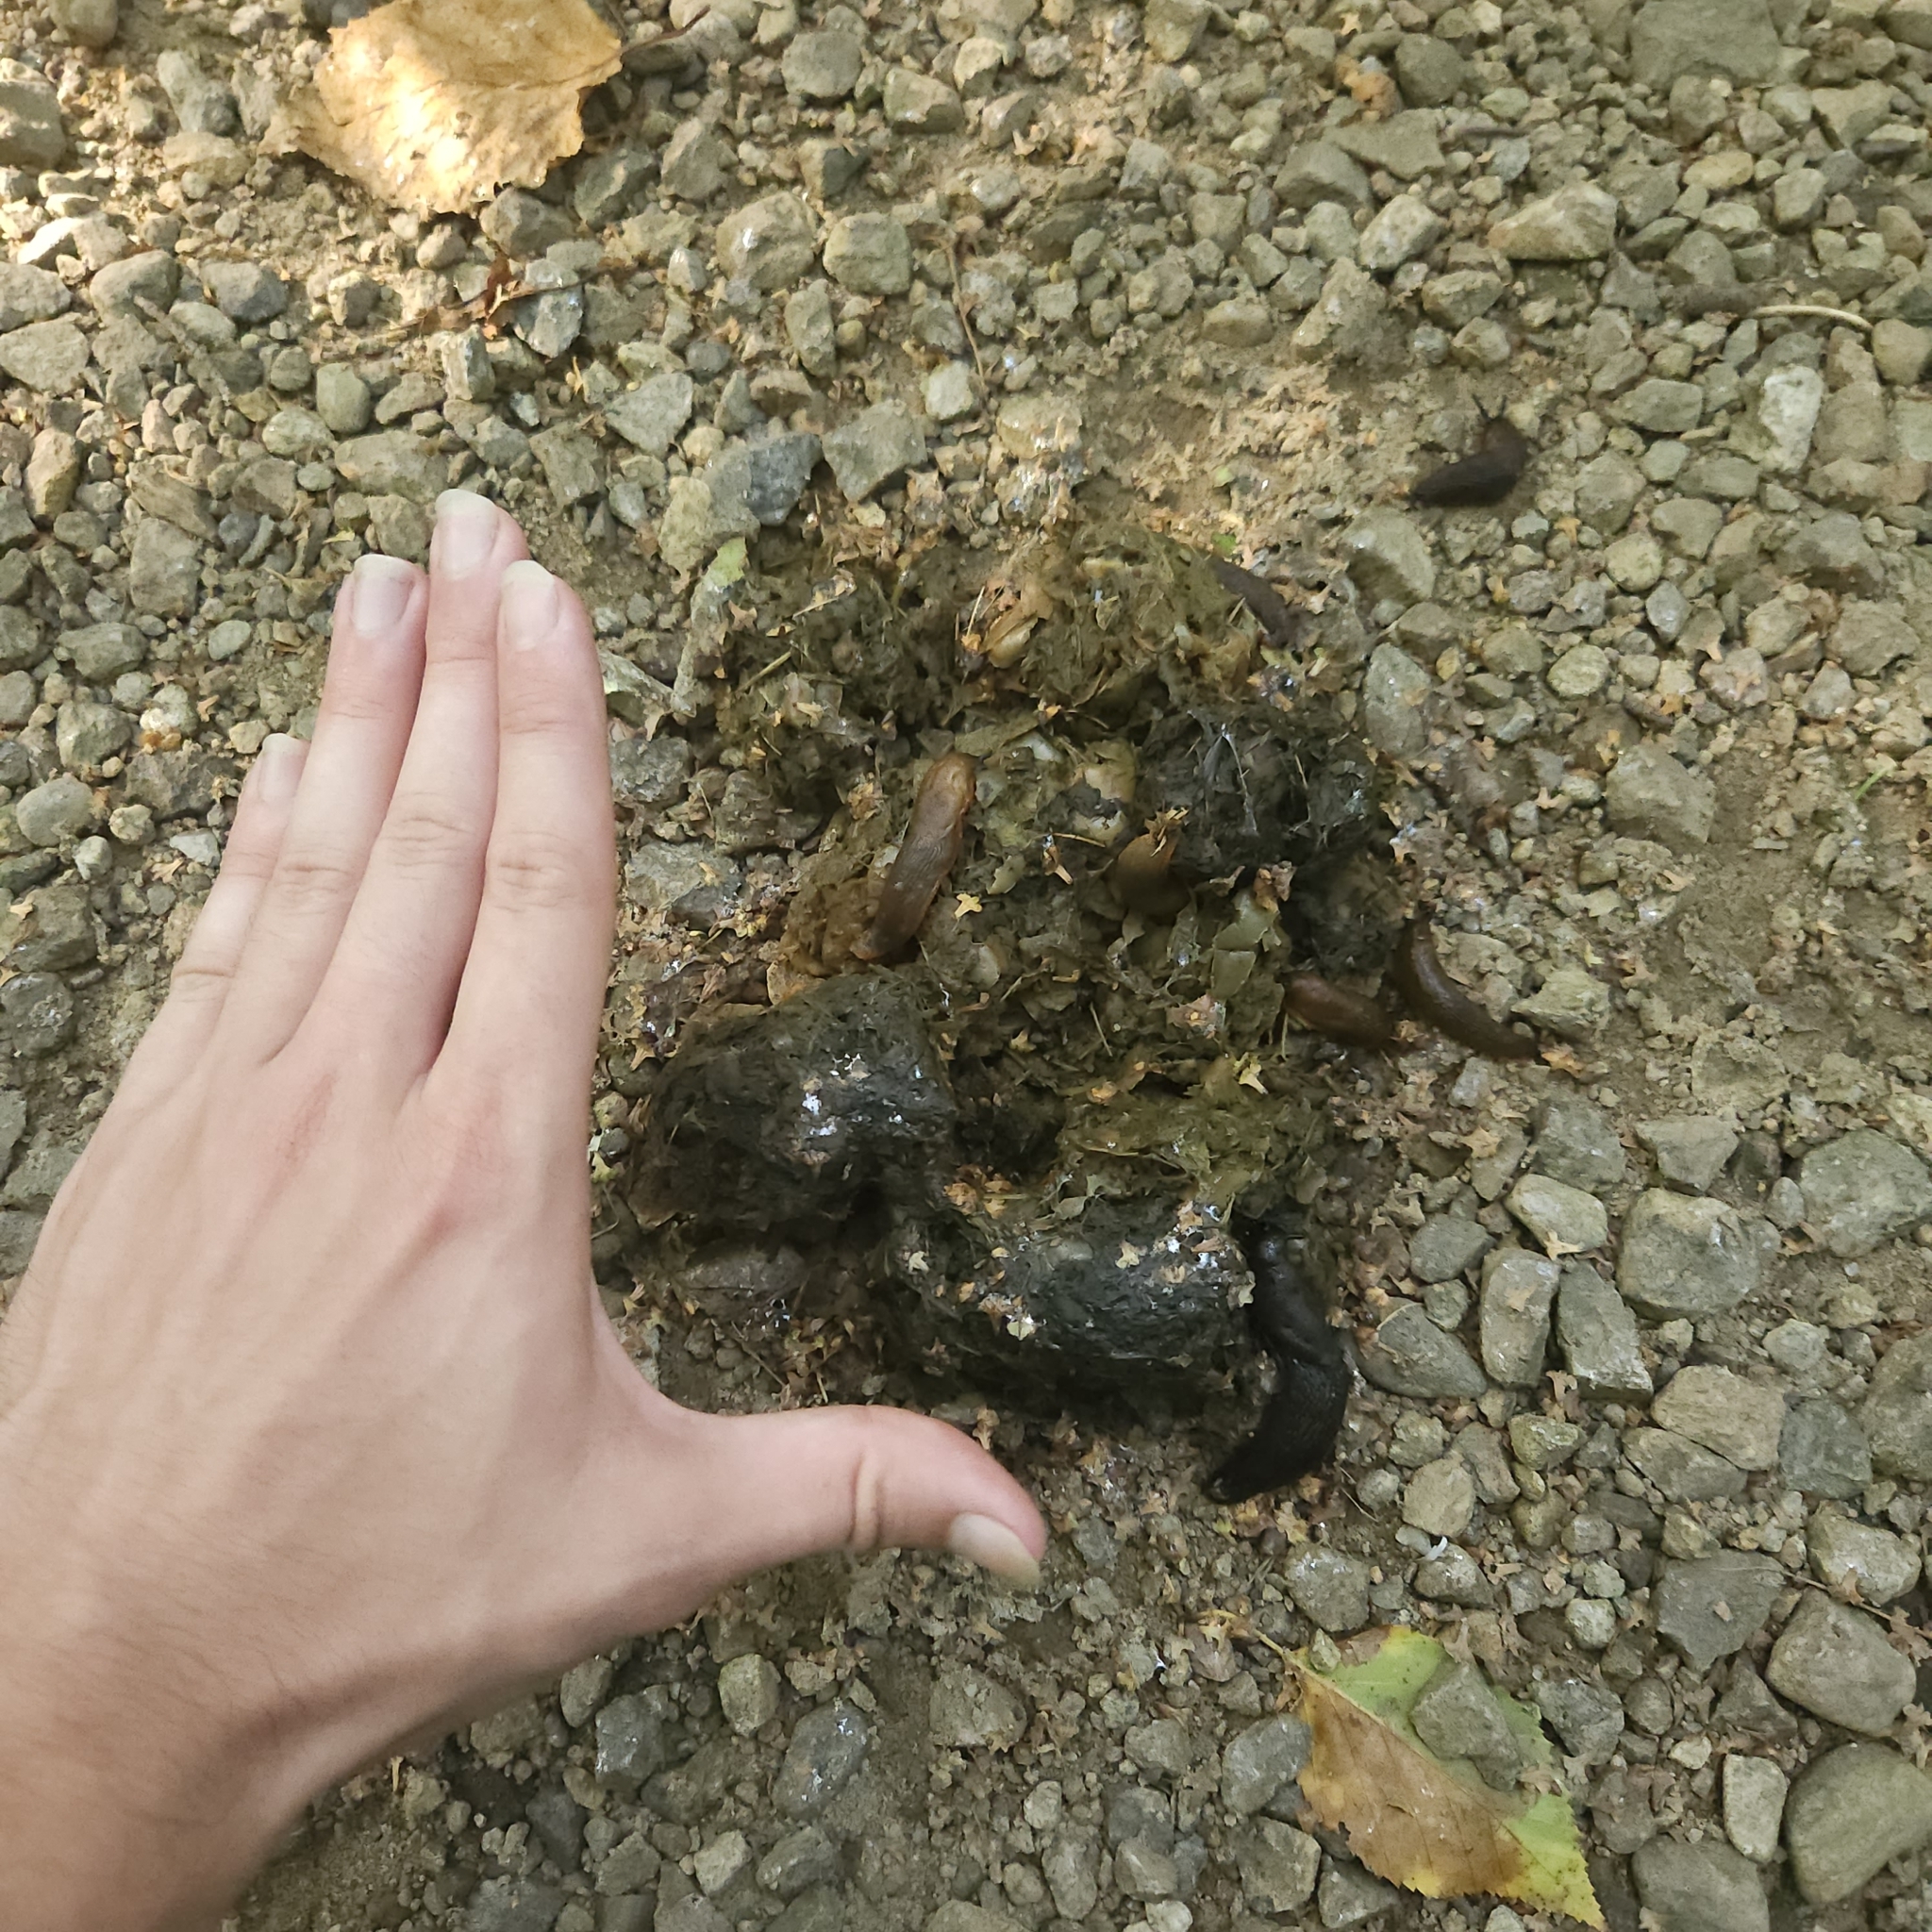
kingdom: Animalia
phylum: Chordata
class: Mammalia
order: Carnivora
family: Ursidae
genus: Ursus
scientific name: Ursus americanus
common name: American black bear
